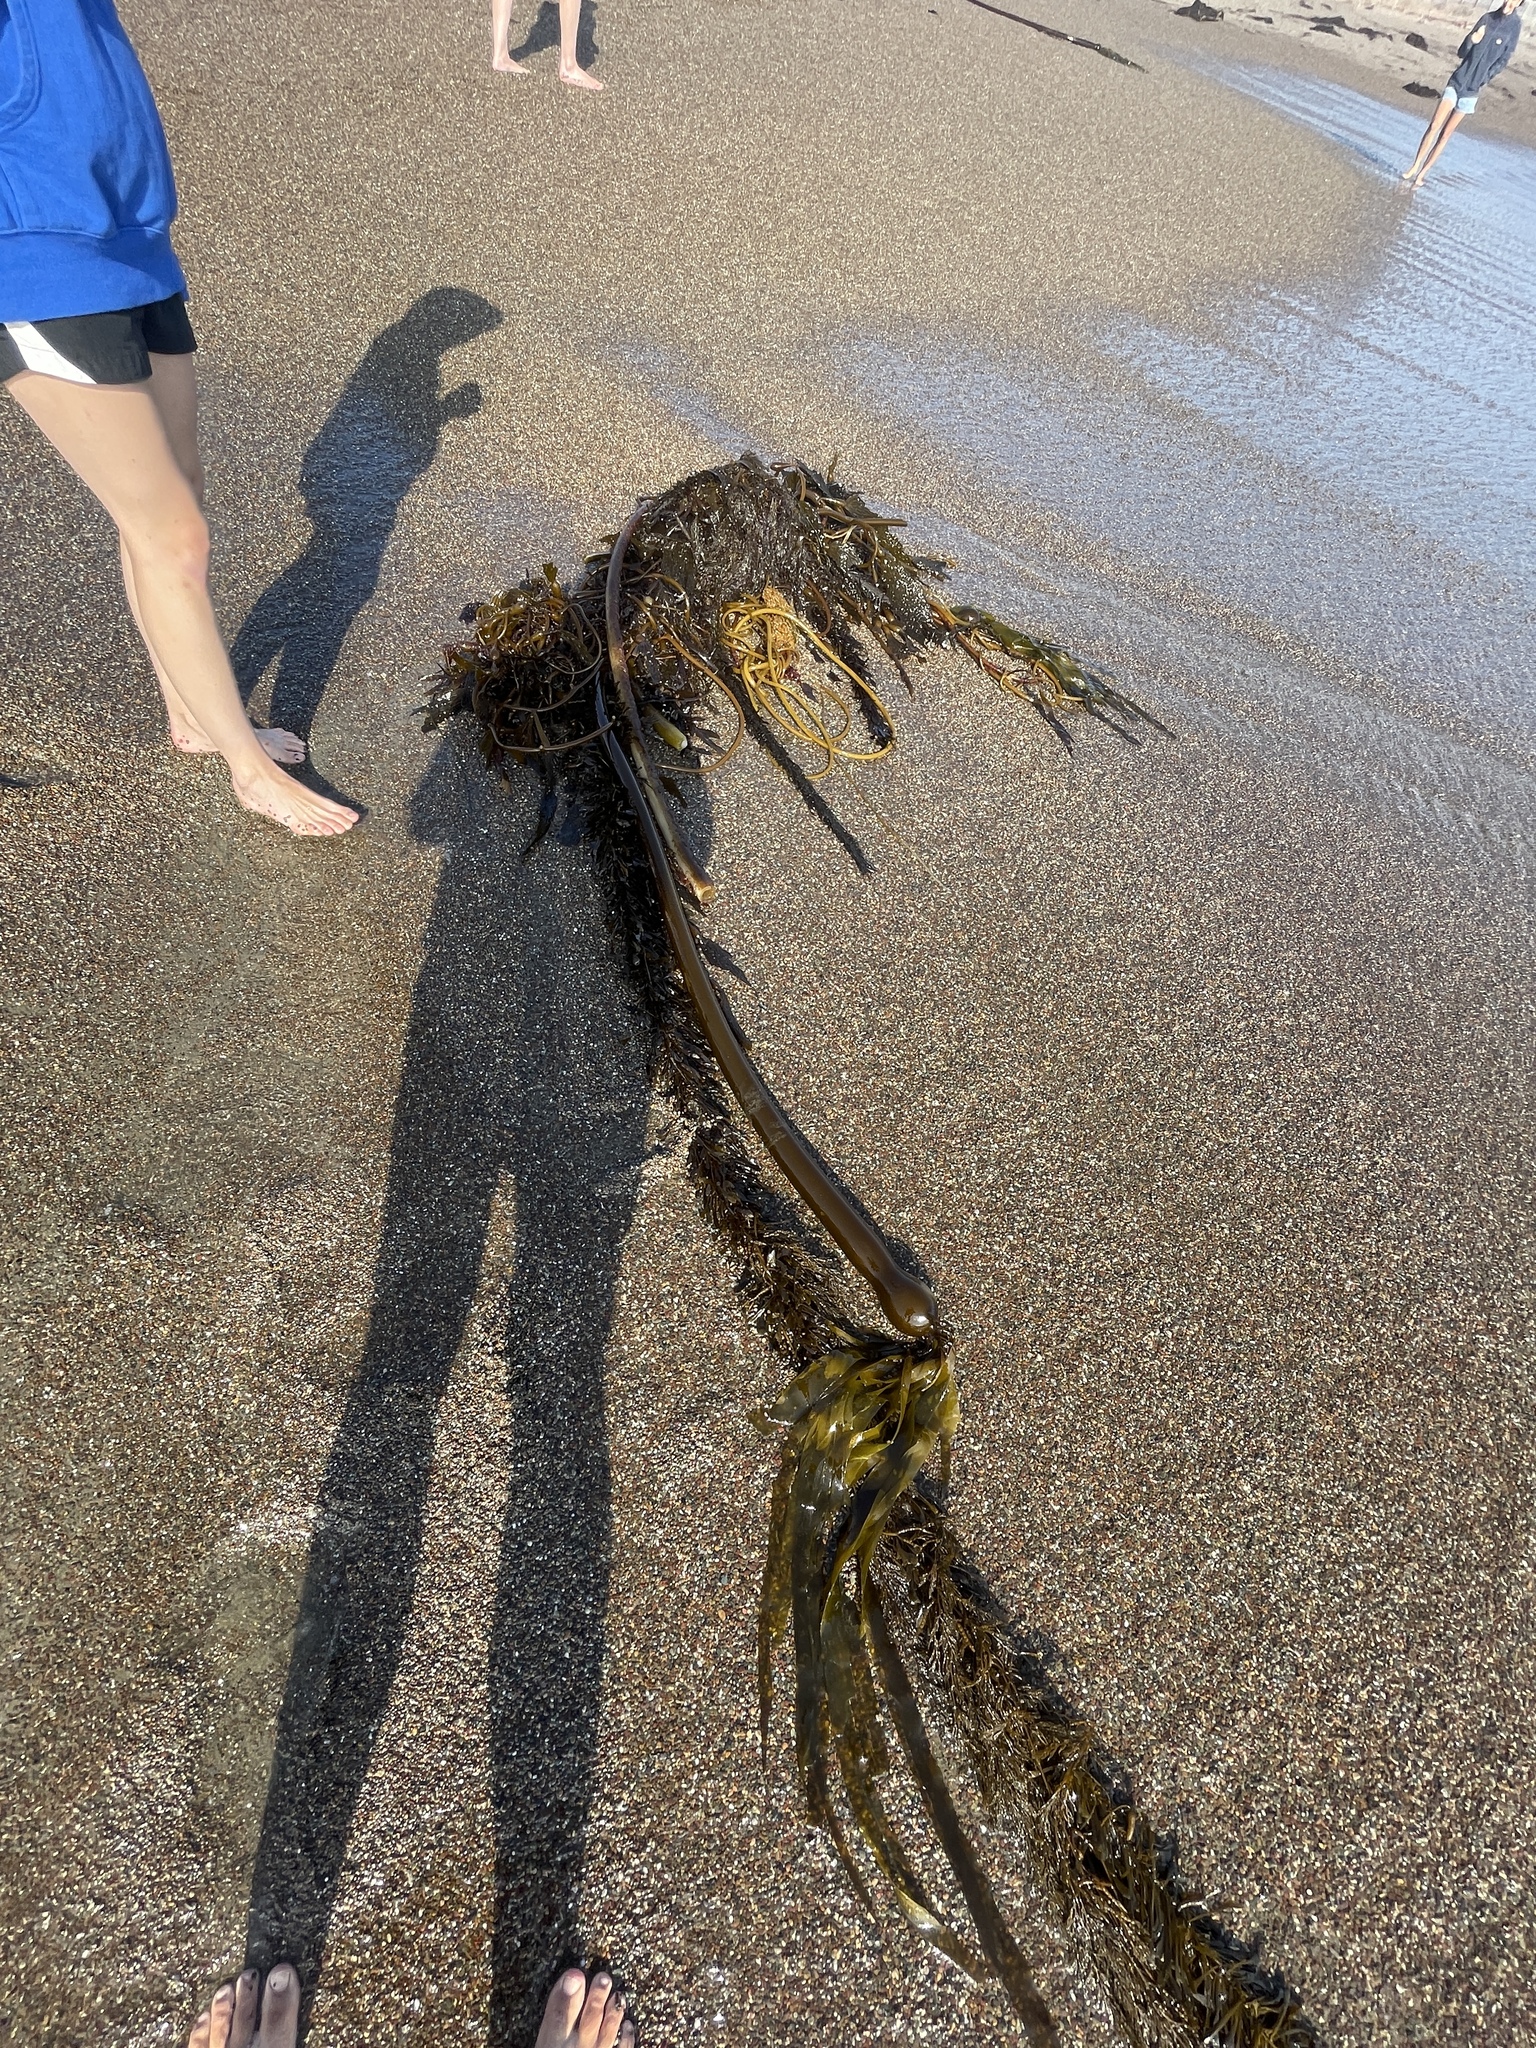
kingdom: Chromista
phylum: Ochrophyta
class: Phaeophyceae
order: Laminariales
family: Laminariaceae
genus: Nereocystis
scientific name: Nereocystis luetkeana
